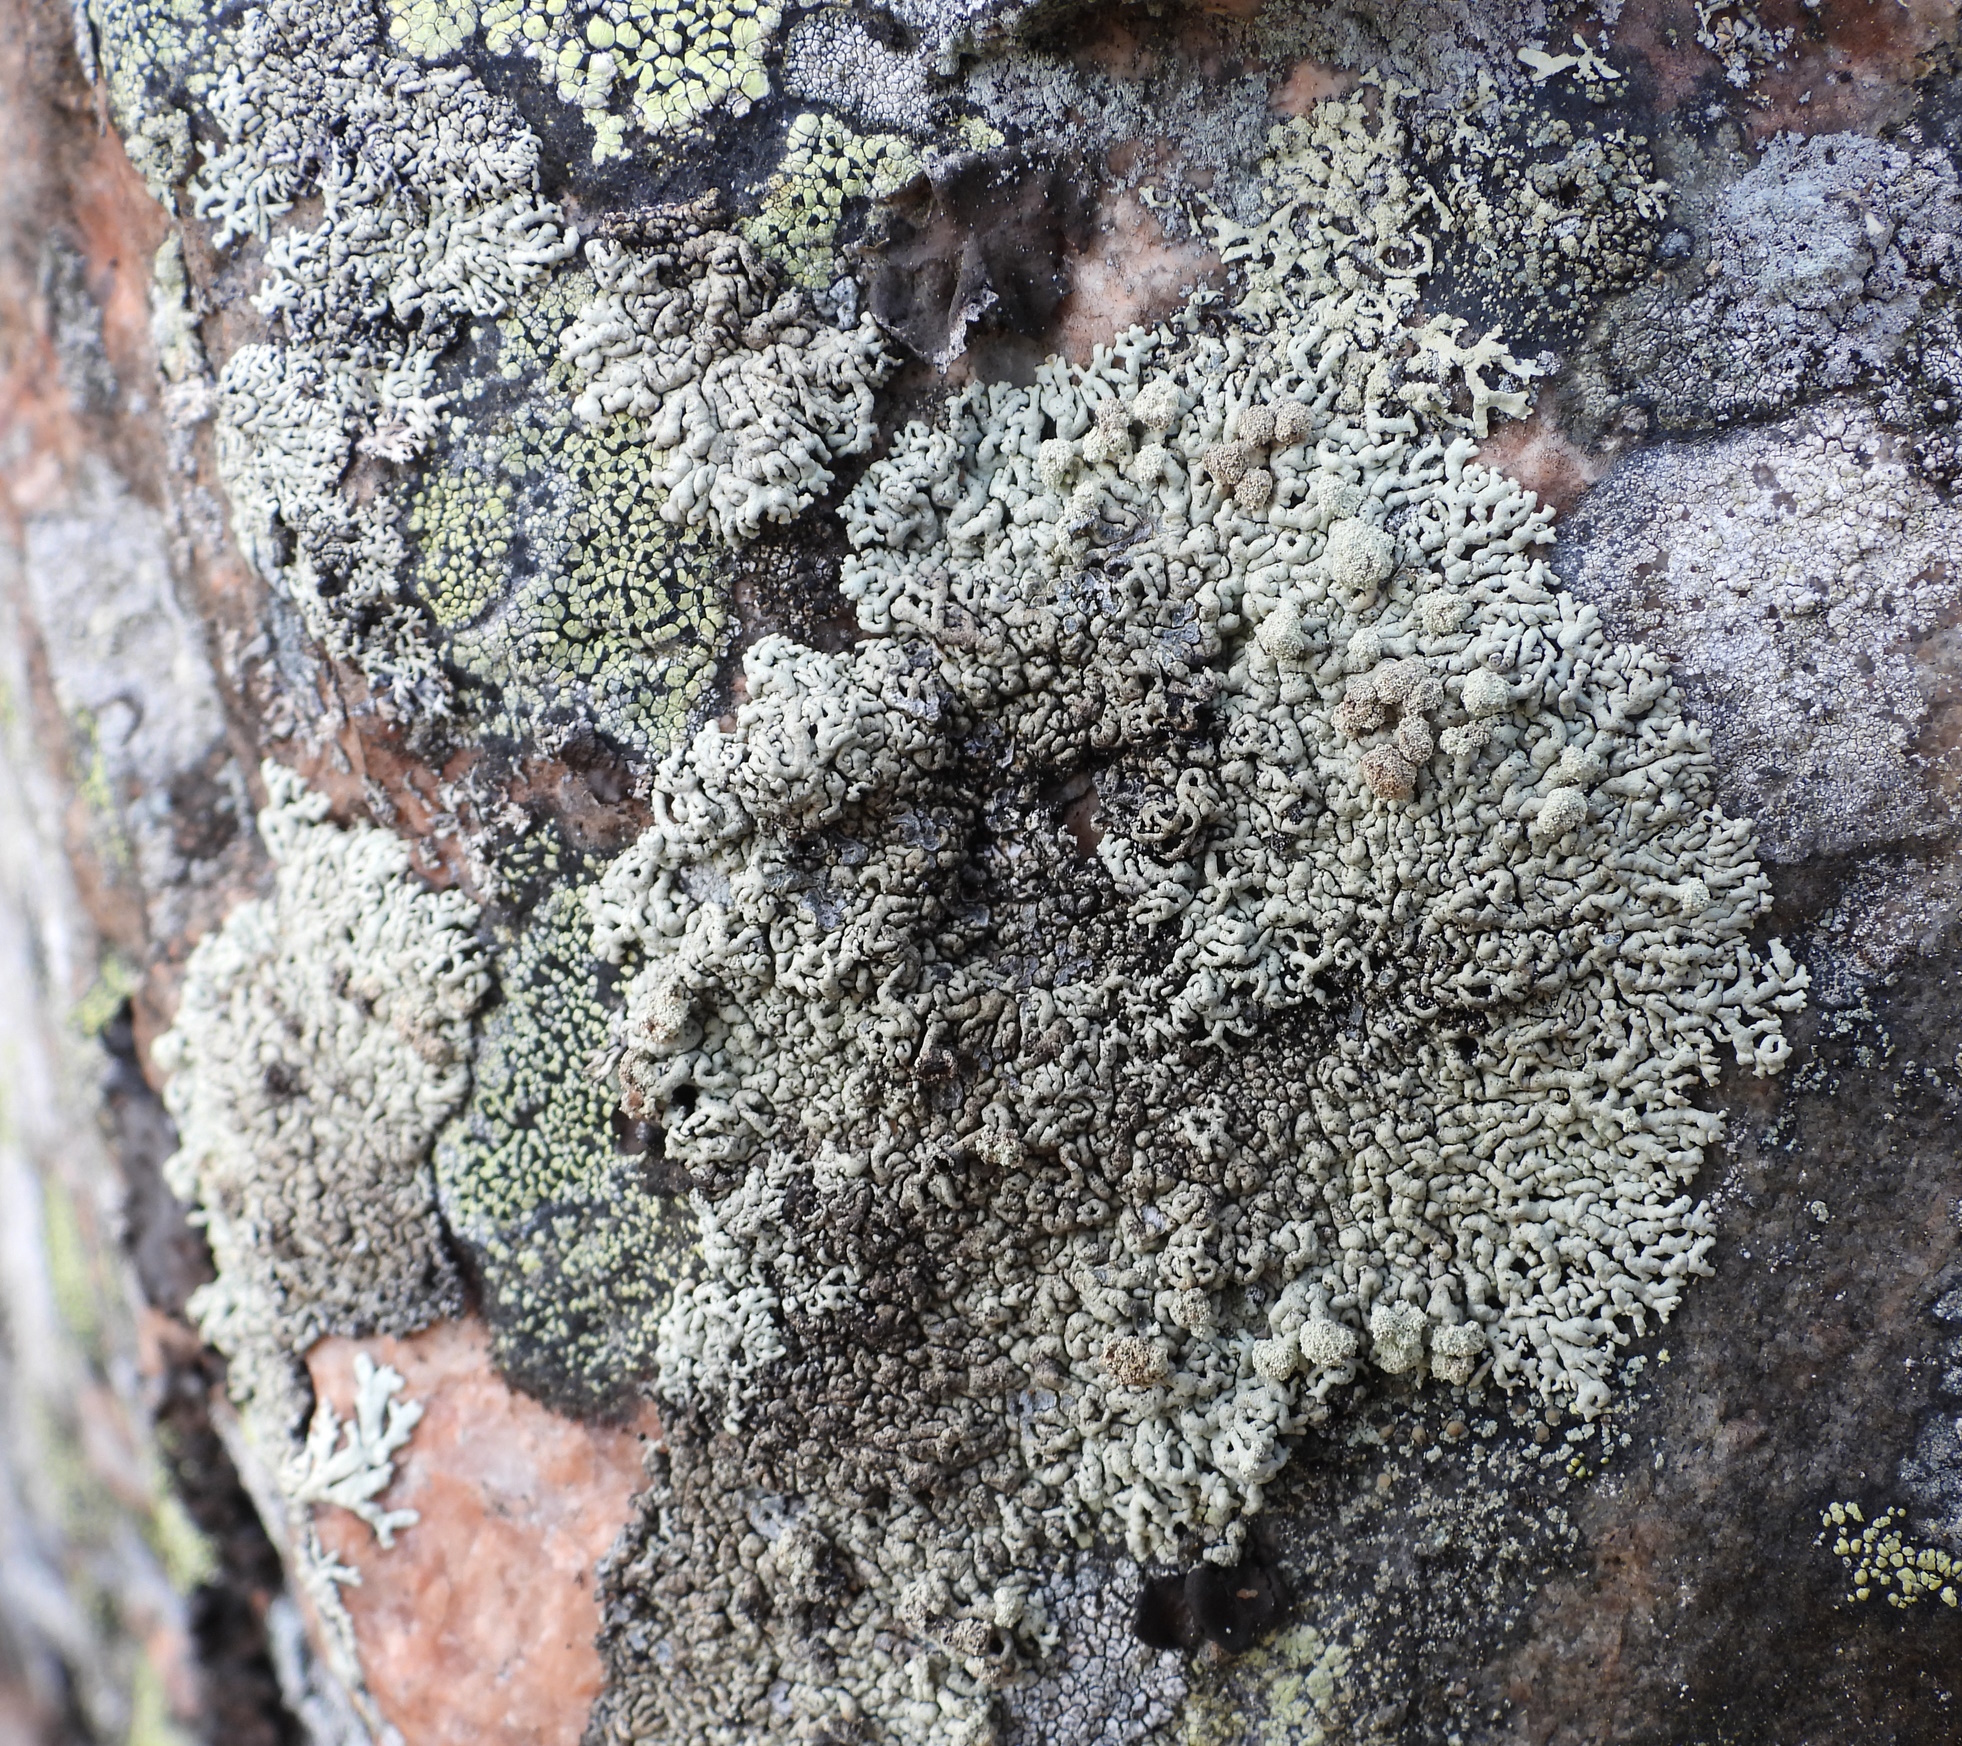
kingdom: Fungi
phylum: Ascomycota
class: Lecanoromycetes
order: Lecanorales
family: Parmeliaceae
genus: Arctoparmelia
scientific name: Arctoparmelia incurva
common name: Bent ring lichen
